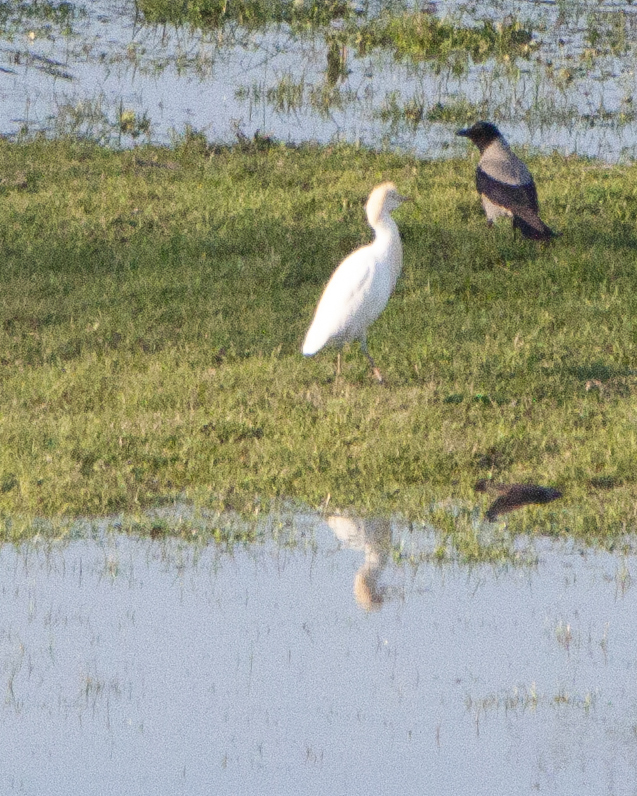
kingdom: Animalia
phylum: Chordata
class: Aves
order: Pelecaniformes
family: Ardeidae
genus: Bubulcus
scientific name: Bubulcus ibis
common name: Cattle egret
